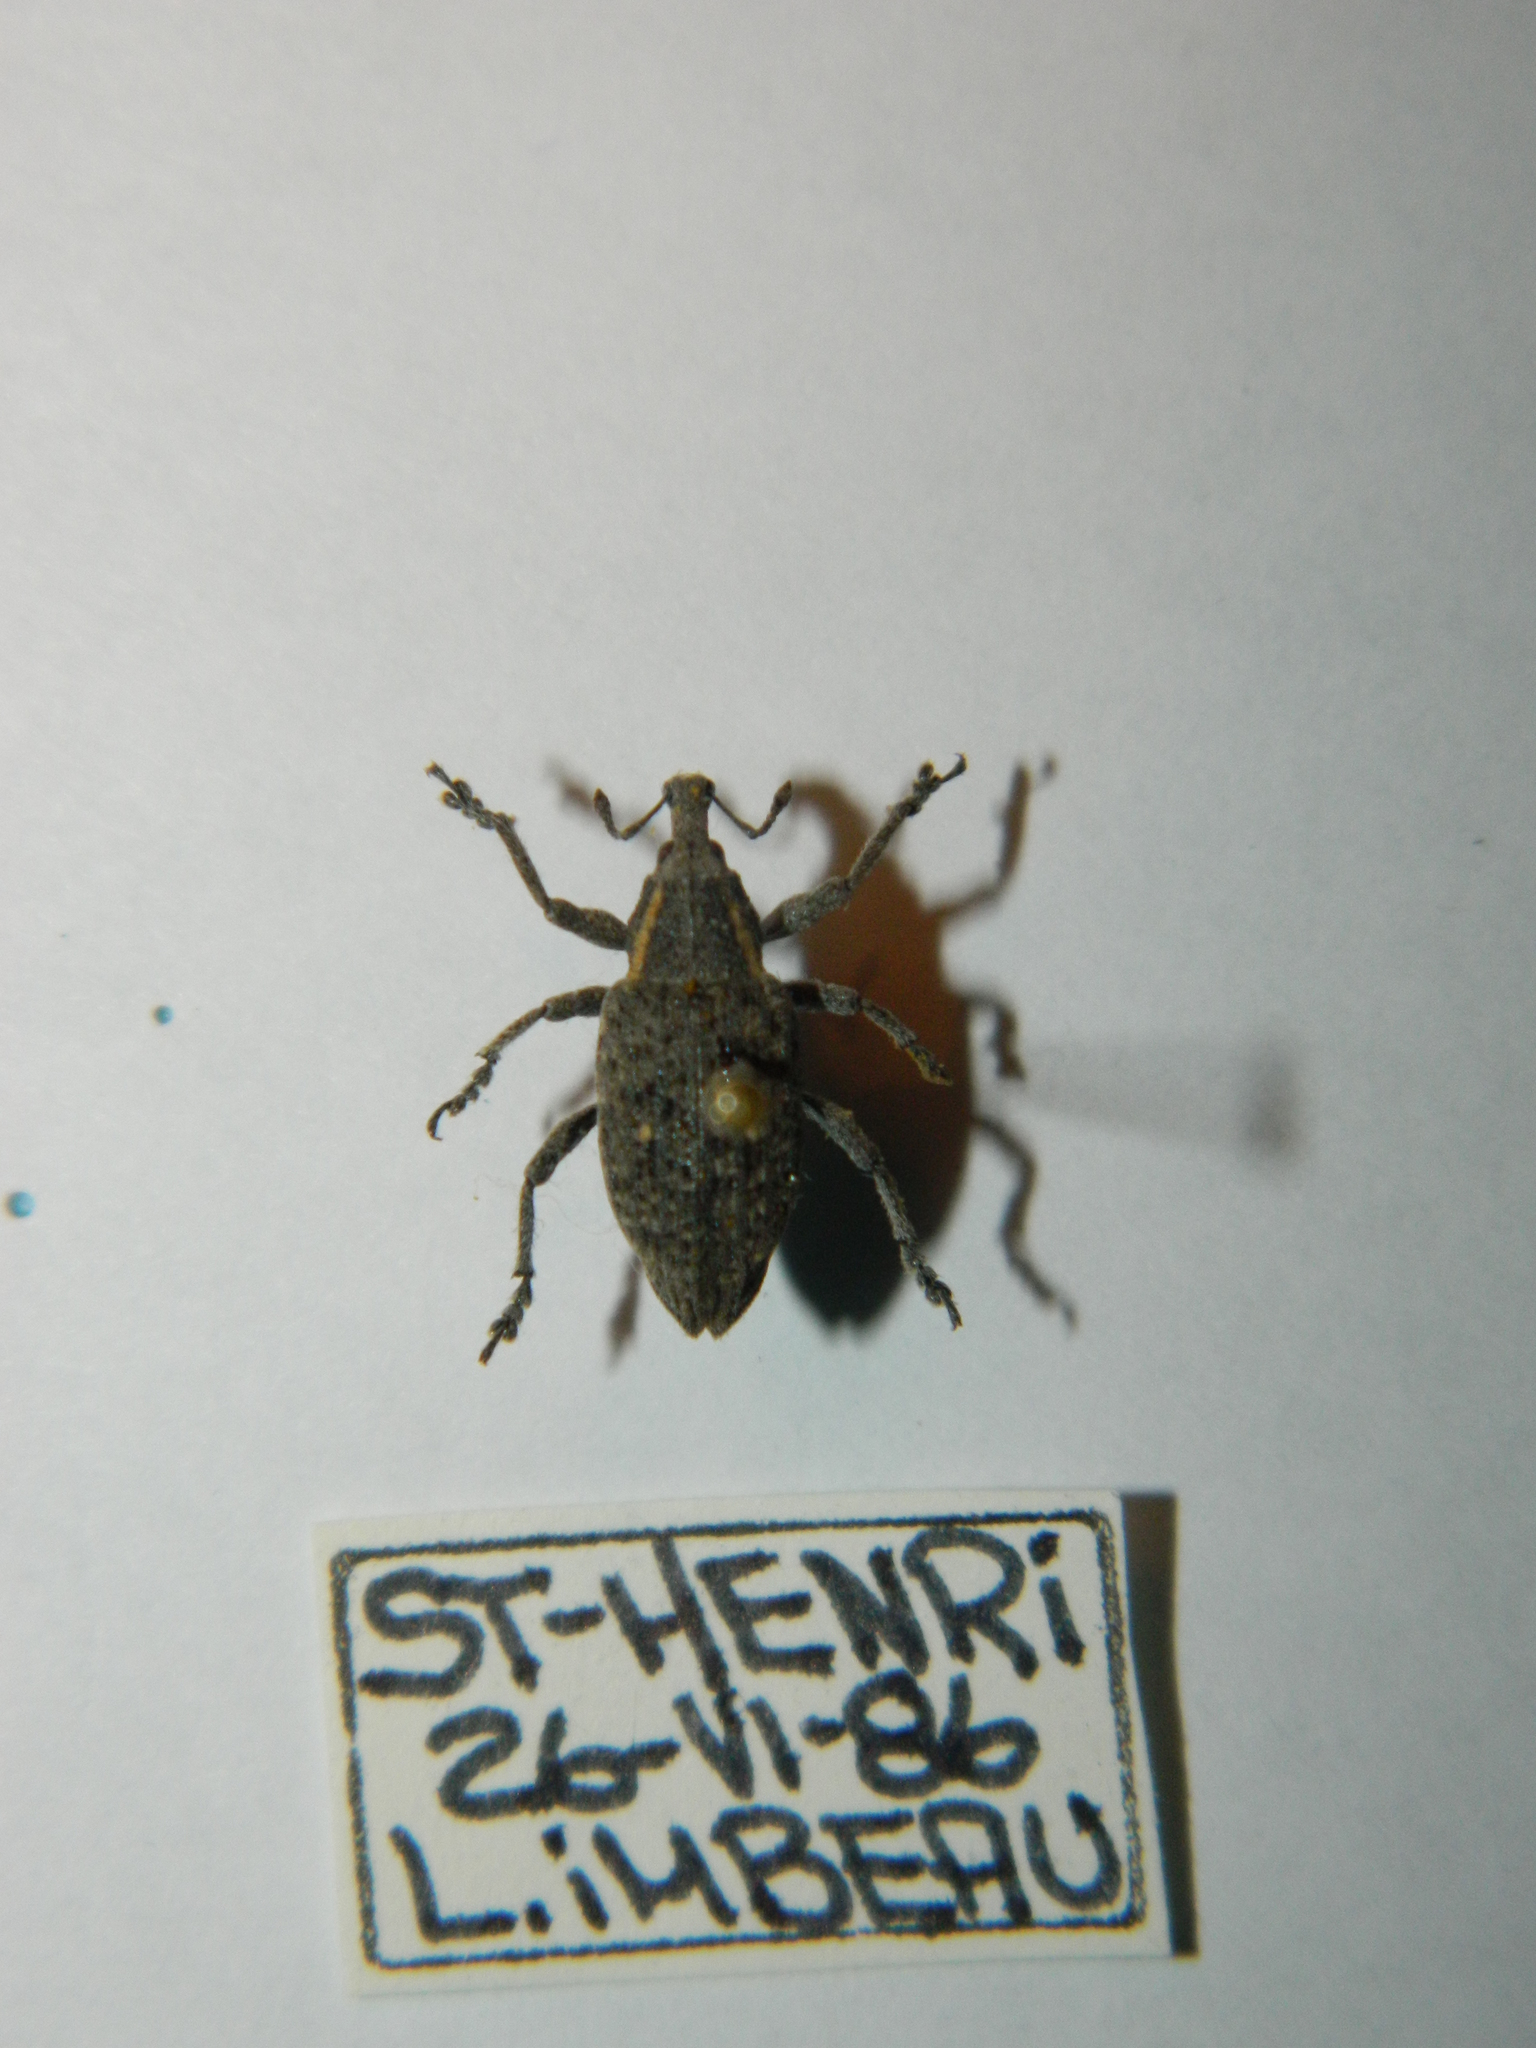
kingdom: Animalia
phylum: Arthropoda
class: Insecta
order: Coleoptera
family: Curculionidae
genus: Lepyrus
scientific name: Lepyrus palustris
